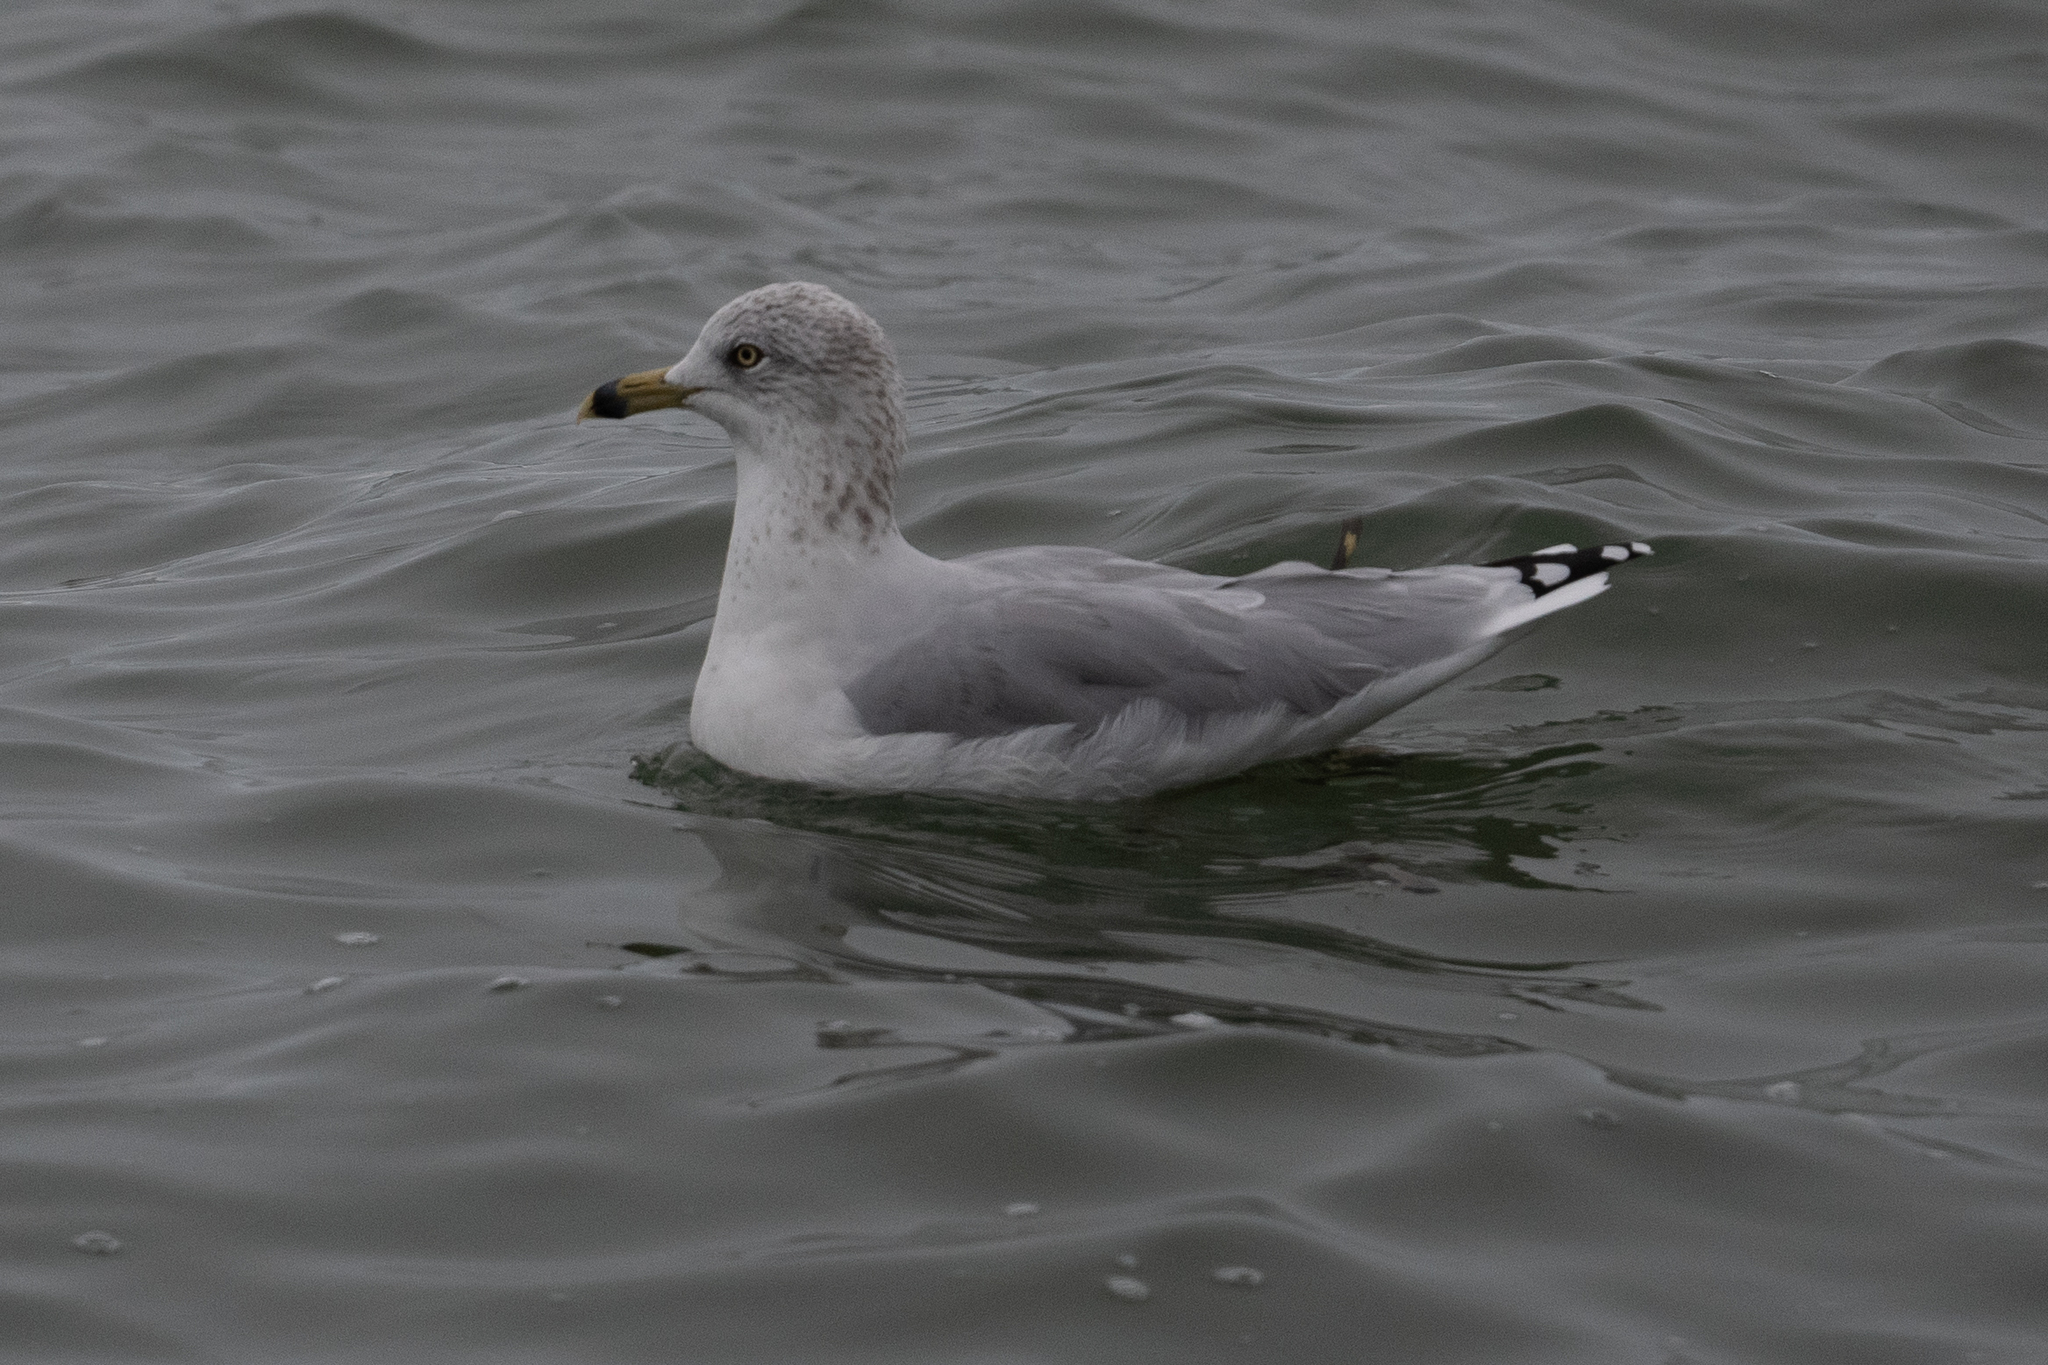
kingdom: Animalia
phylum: Chordata
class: Aves
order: Charadriiformes
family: Laridae
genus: Larus
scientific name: Larus delawarensis
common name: Ring-billed gull
